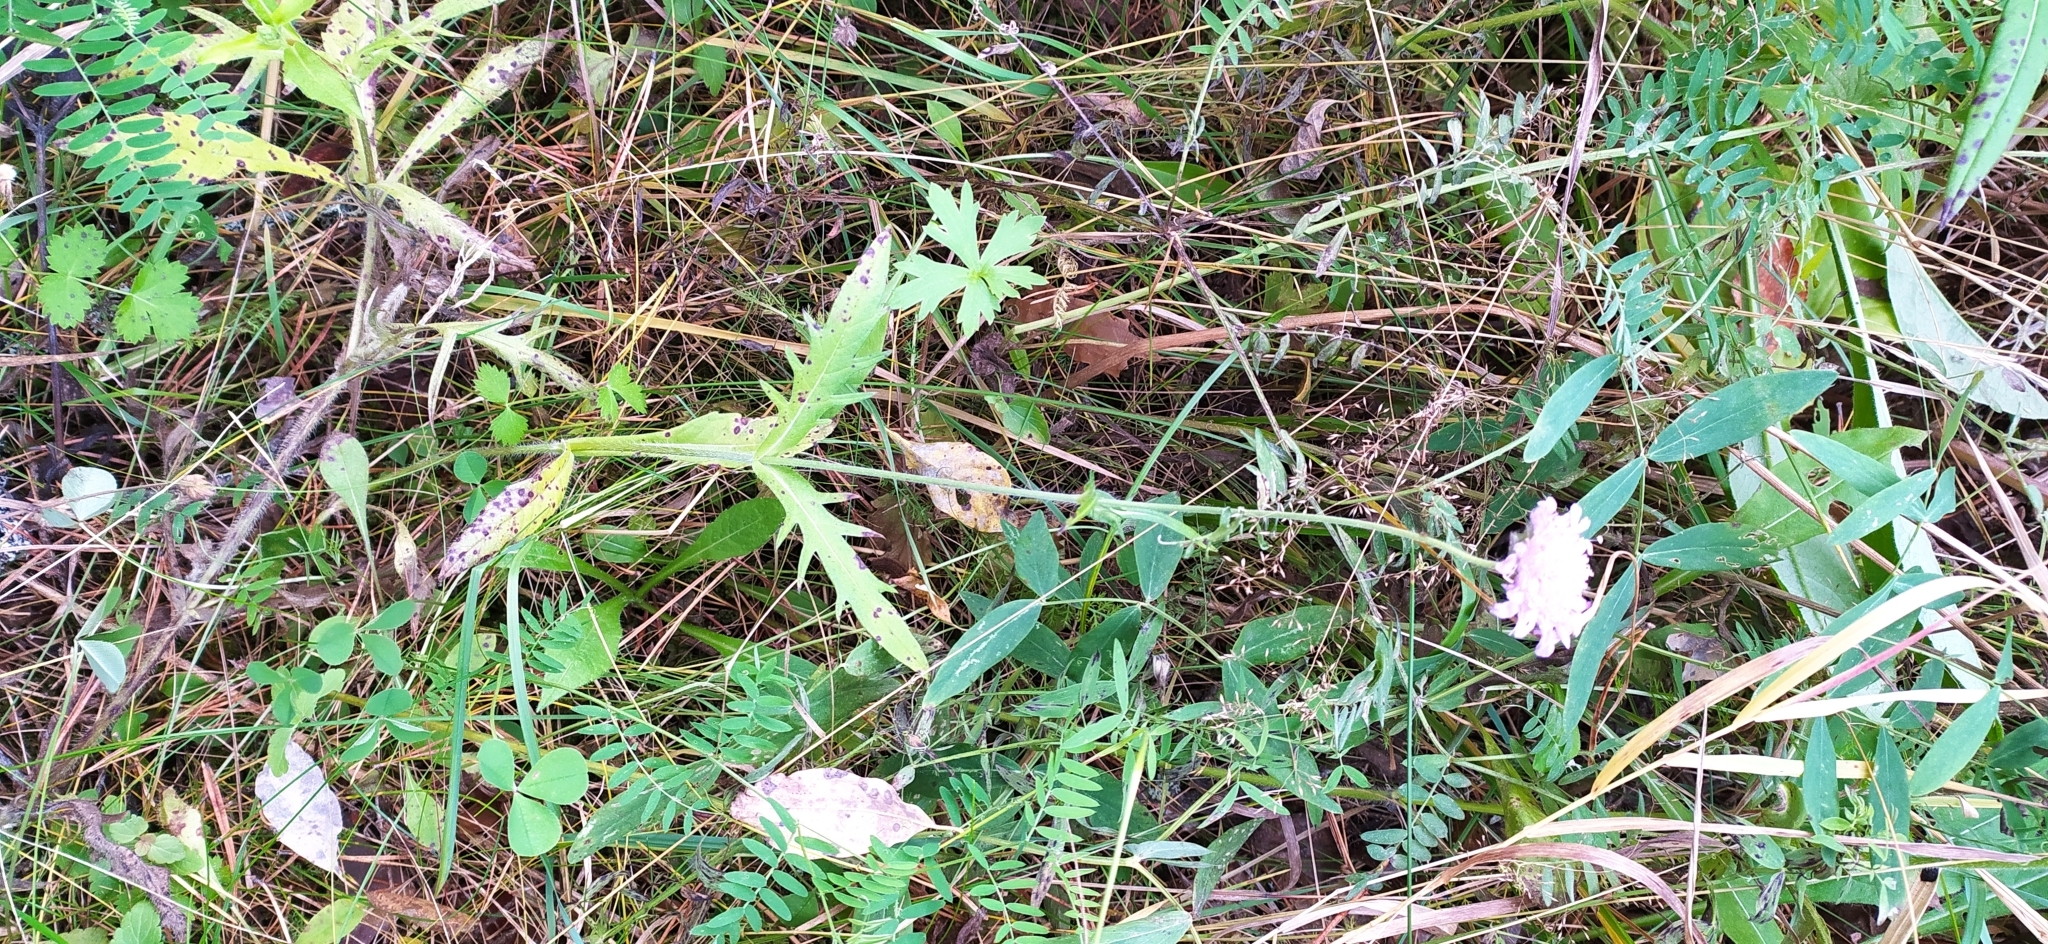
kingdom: Plantae
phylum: Tracheophyta
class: Magnoliopsida
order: Dipsacales
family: Caprifoliaceae
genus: Knautia
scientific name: Knautia arvensis
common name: Field scabiosa
